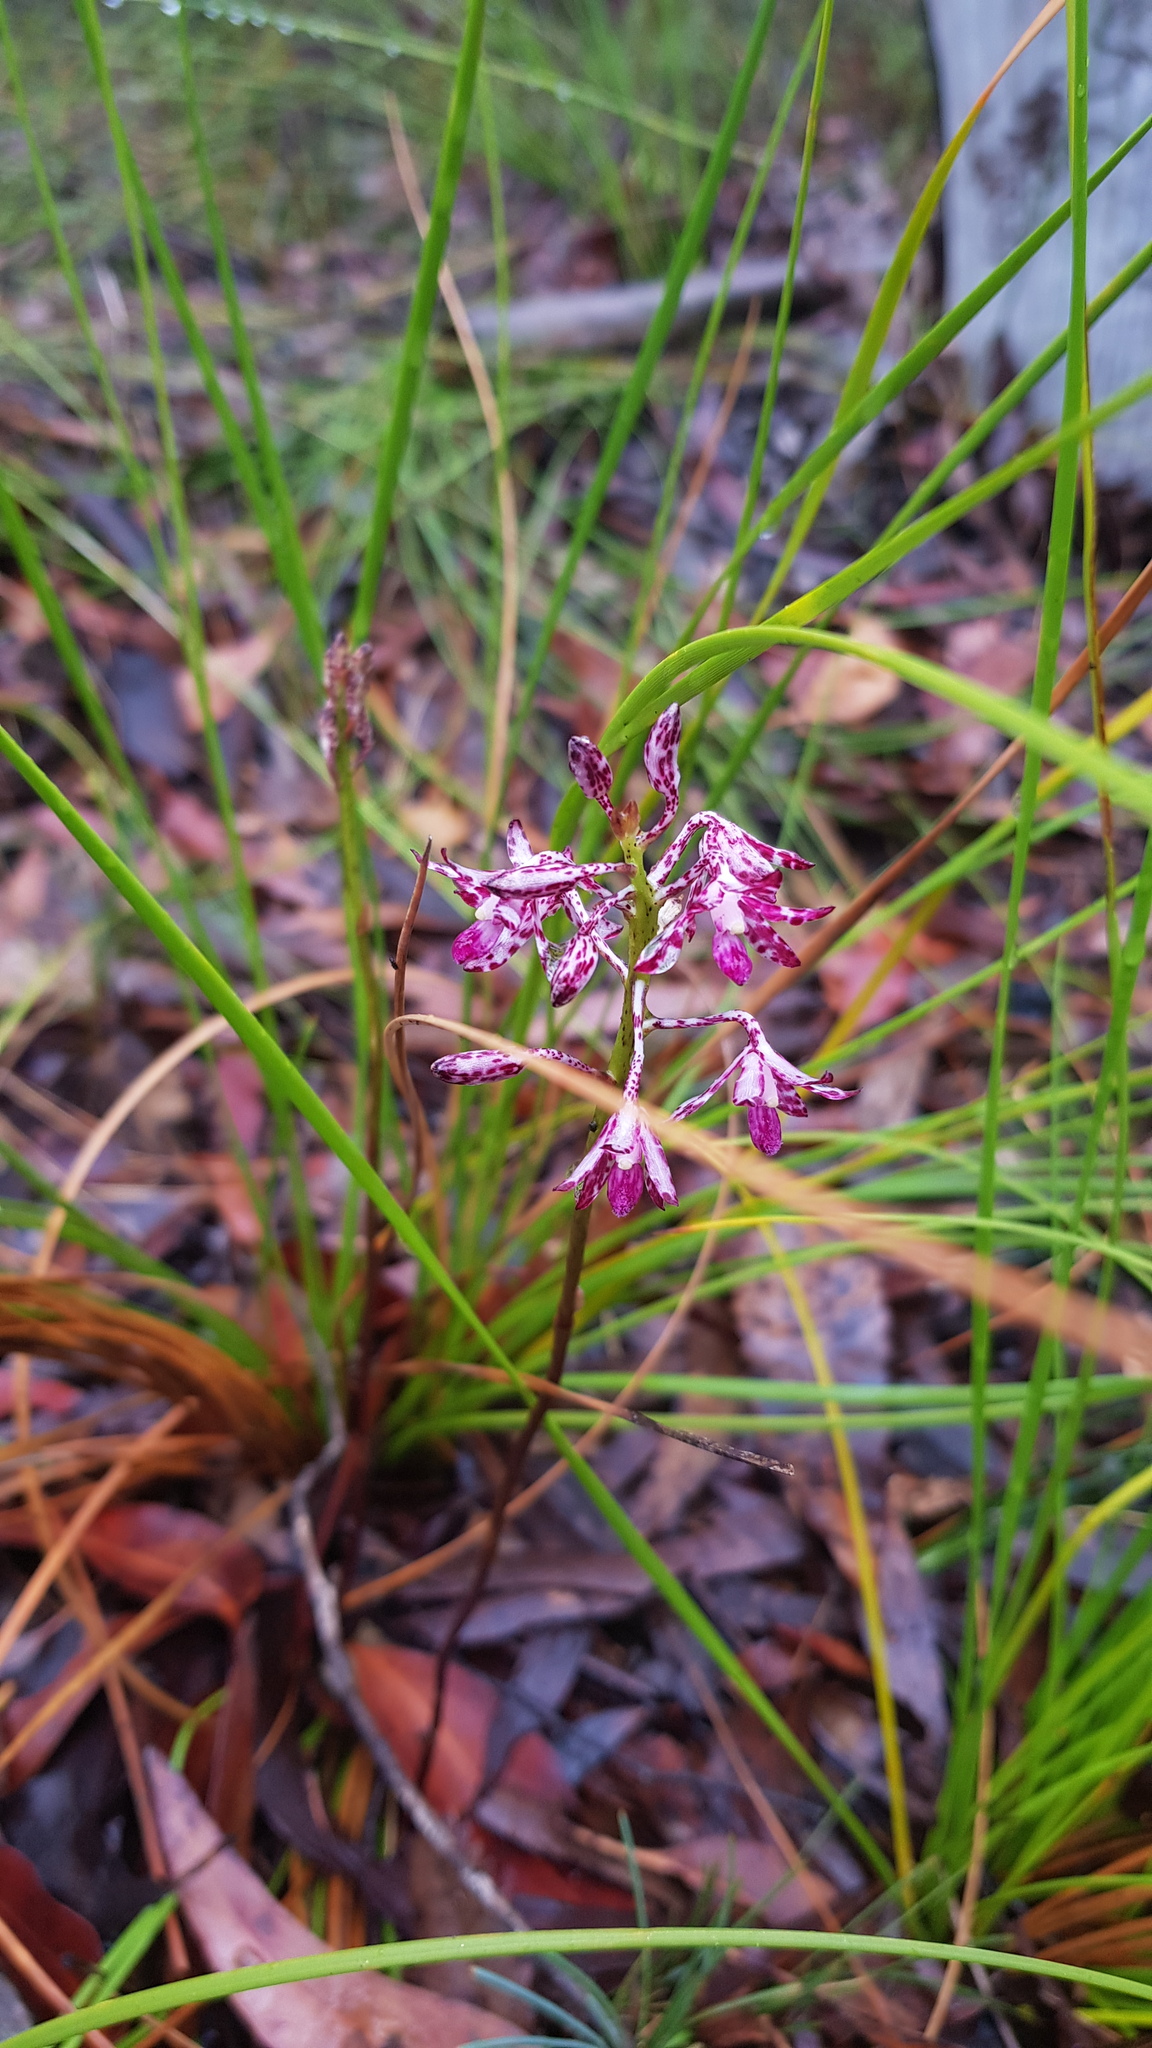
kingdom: Plantae
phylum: Tracheophyta
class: Liliopsida
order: Asparagales
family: Orchidaceae
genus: Dipodium
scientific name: Dipodium variegatum
